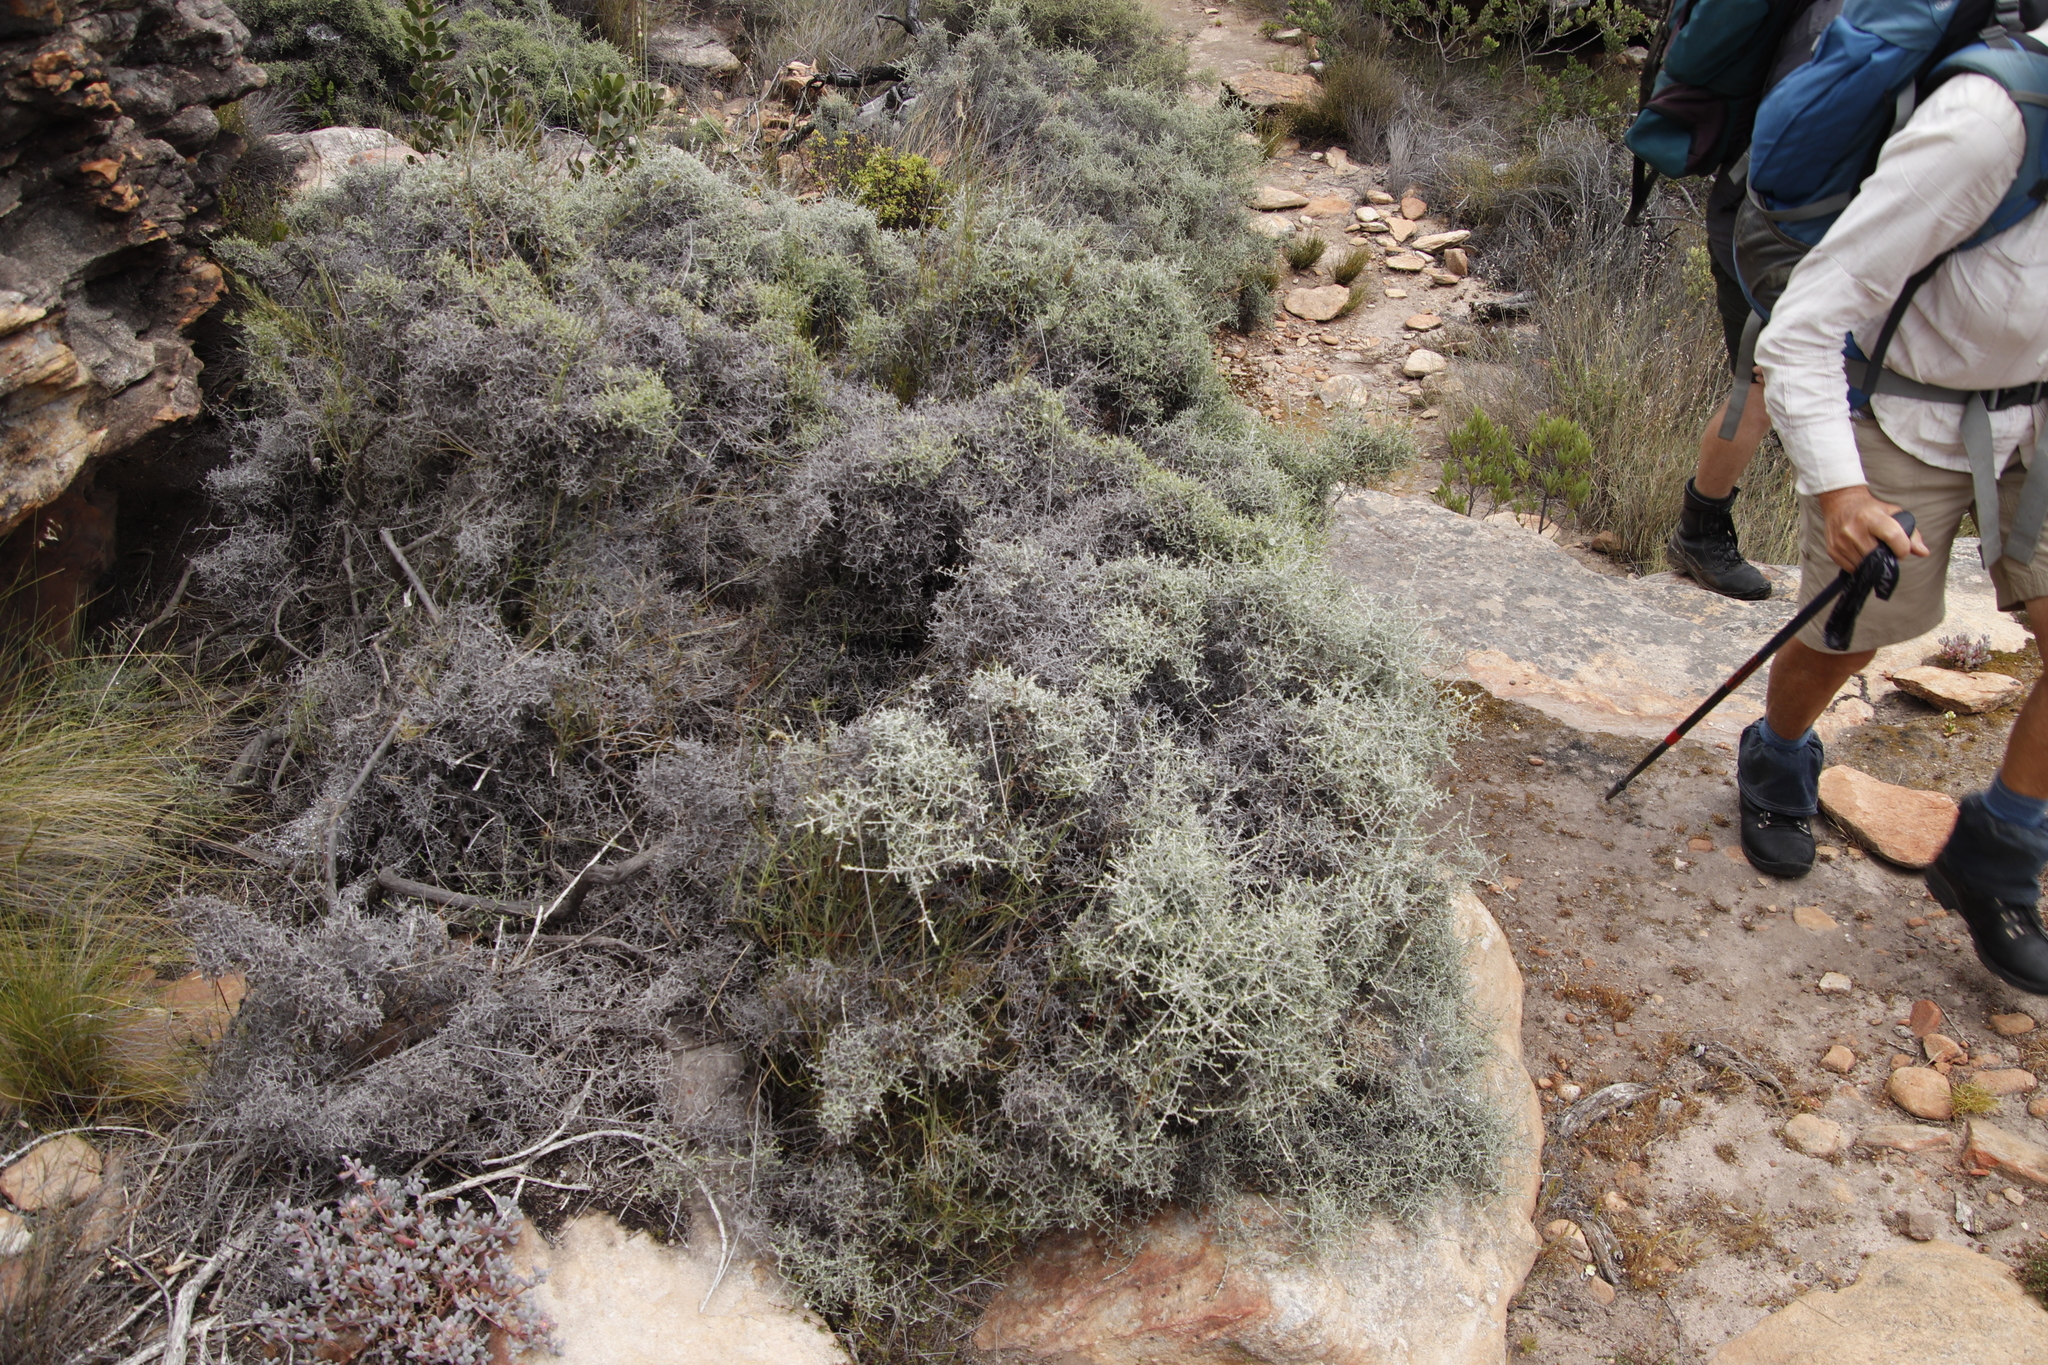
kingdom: Plantae
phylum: Tracheophyta
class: Magnoliopsida
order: Asterales
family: Asteraceae
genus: Seriphium
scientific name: Seriphium plumosum
